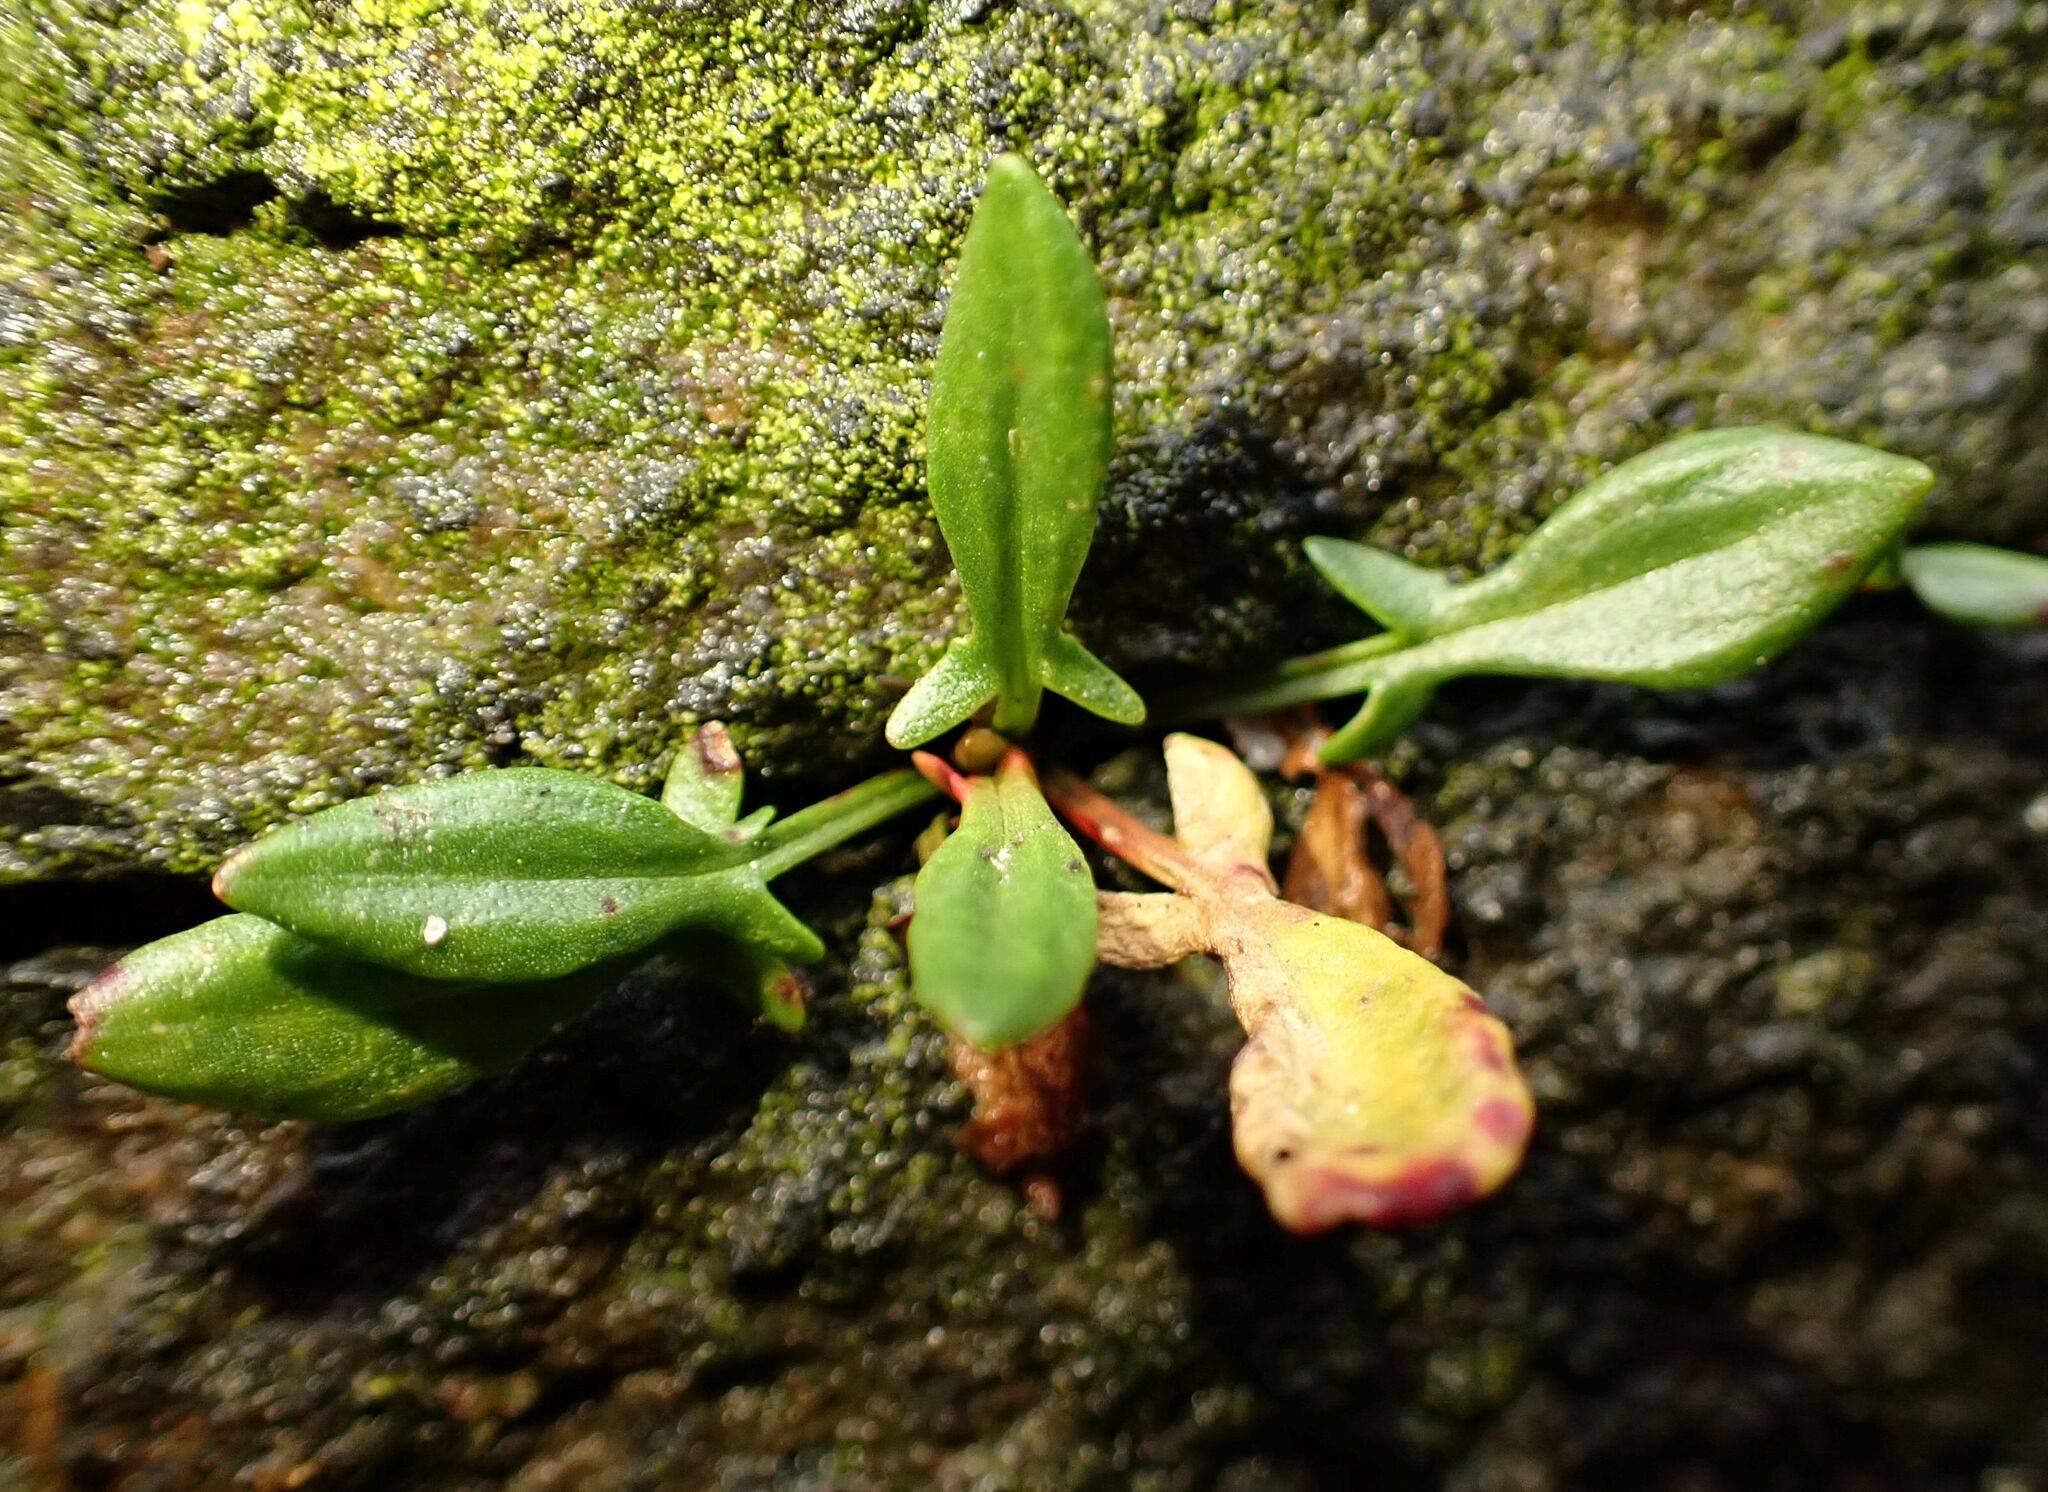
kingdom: Plantae
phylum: Tracheophyta
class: Magnoliopsida
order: Caryophyllales
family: Polygonaceae
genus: Rumex
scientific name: Rumex acetosella
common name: Common sheep sorrel
